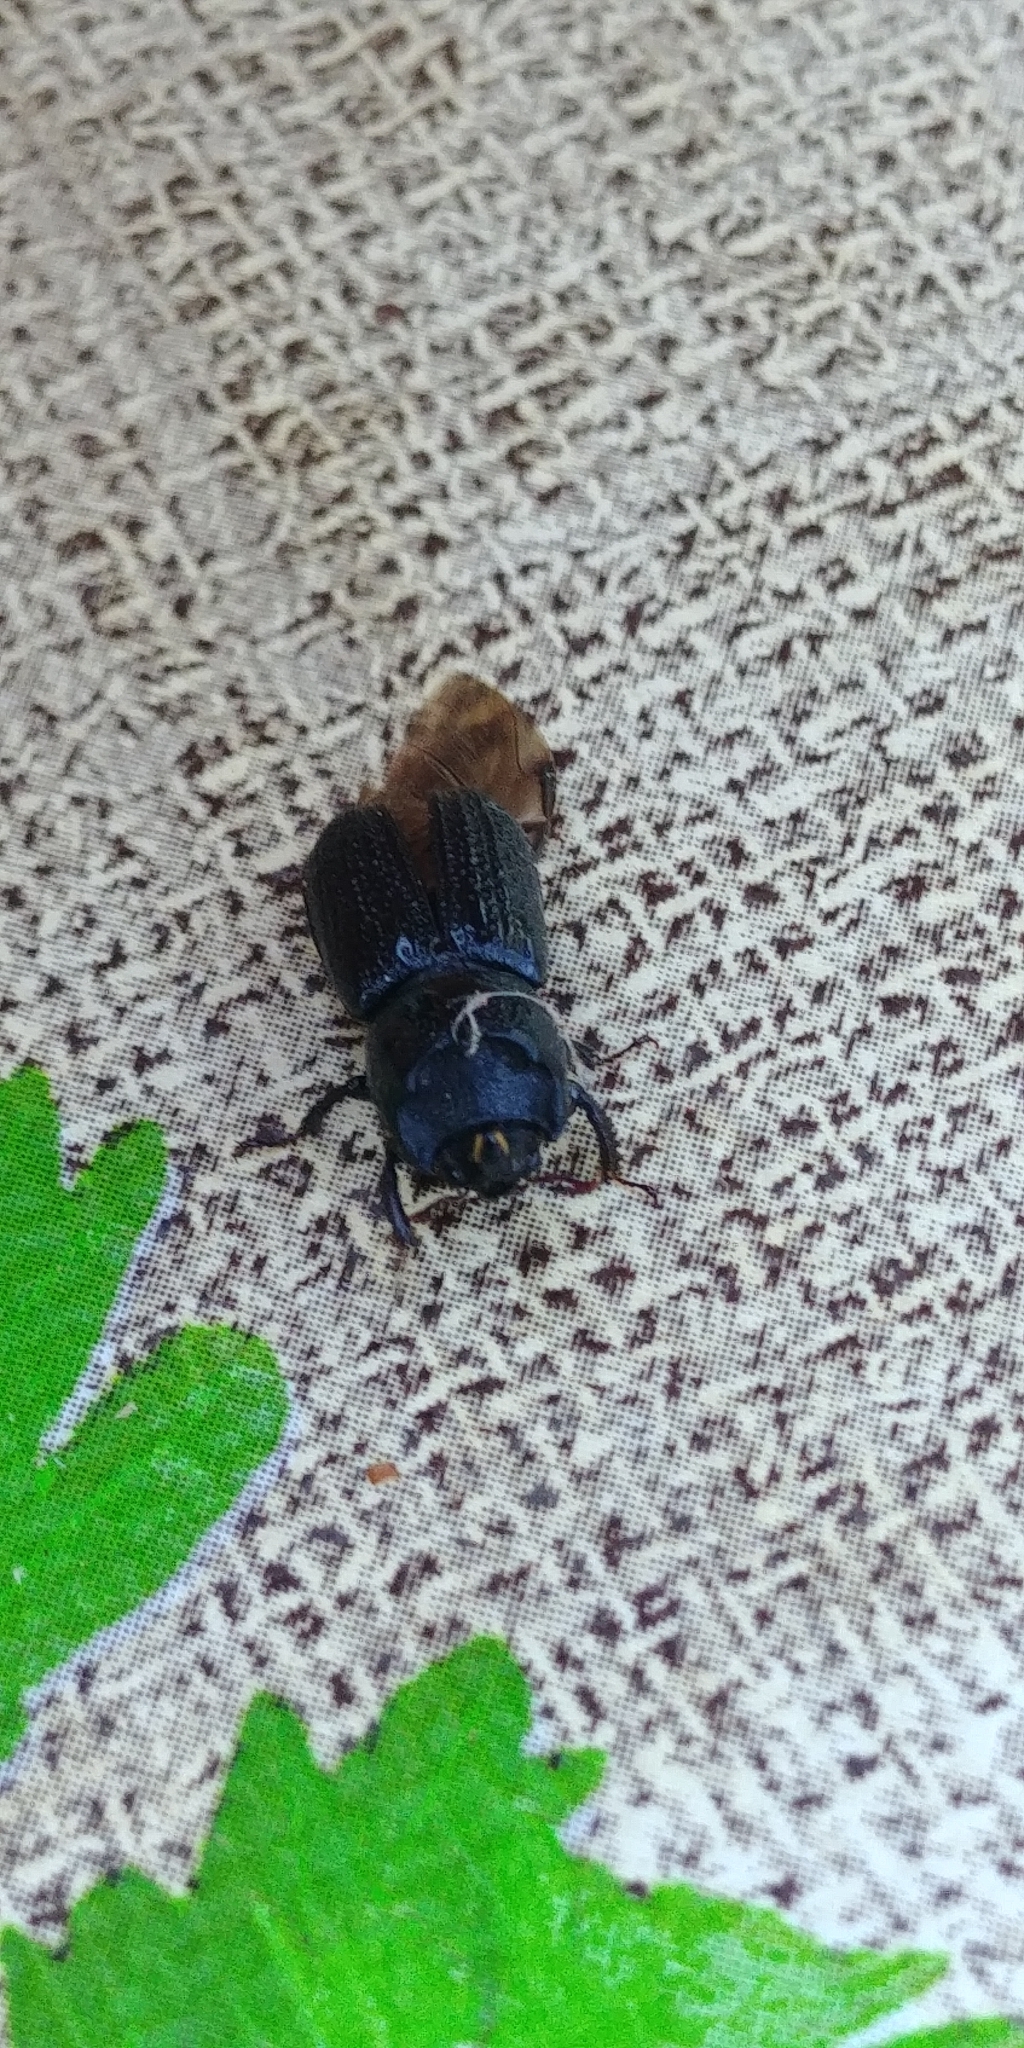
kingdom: Animalia
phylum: Arthropoda
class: Insecta
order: Coleoptera
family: Lucanidae
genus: Sinodendron
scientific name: Sinodendron cylindricum
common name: Rhinoceros beetle
